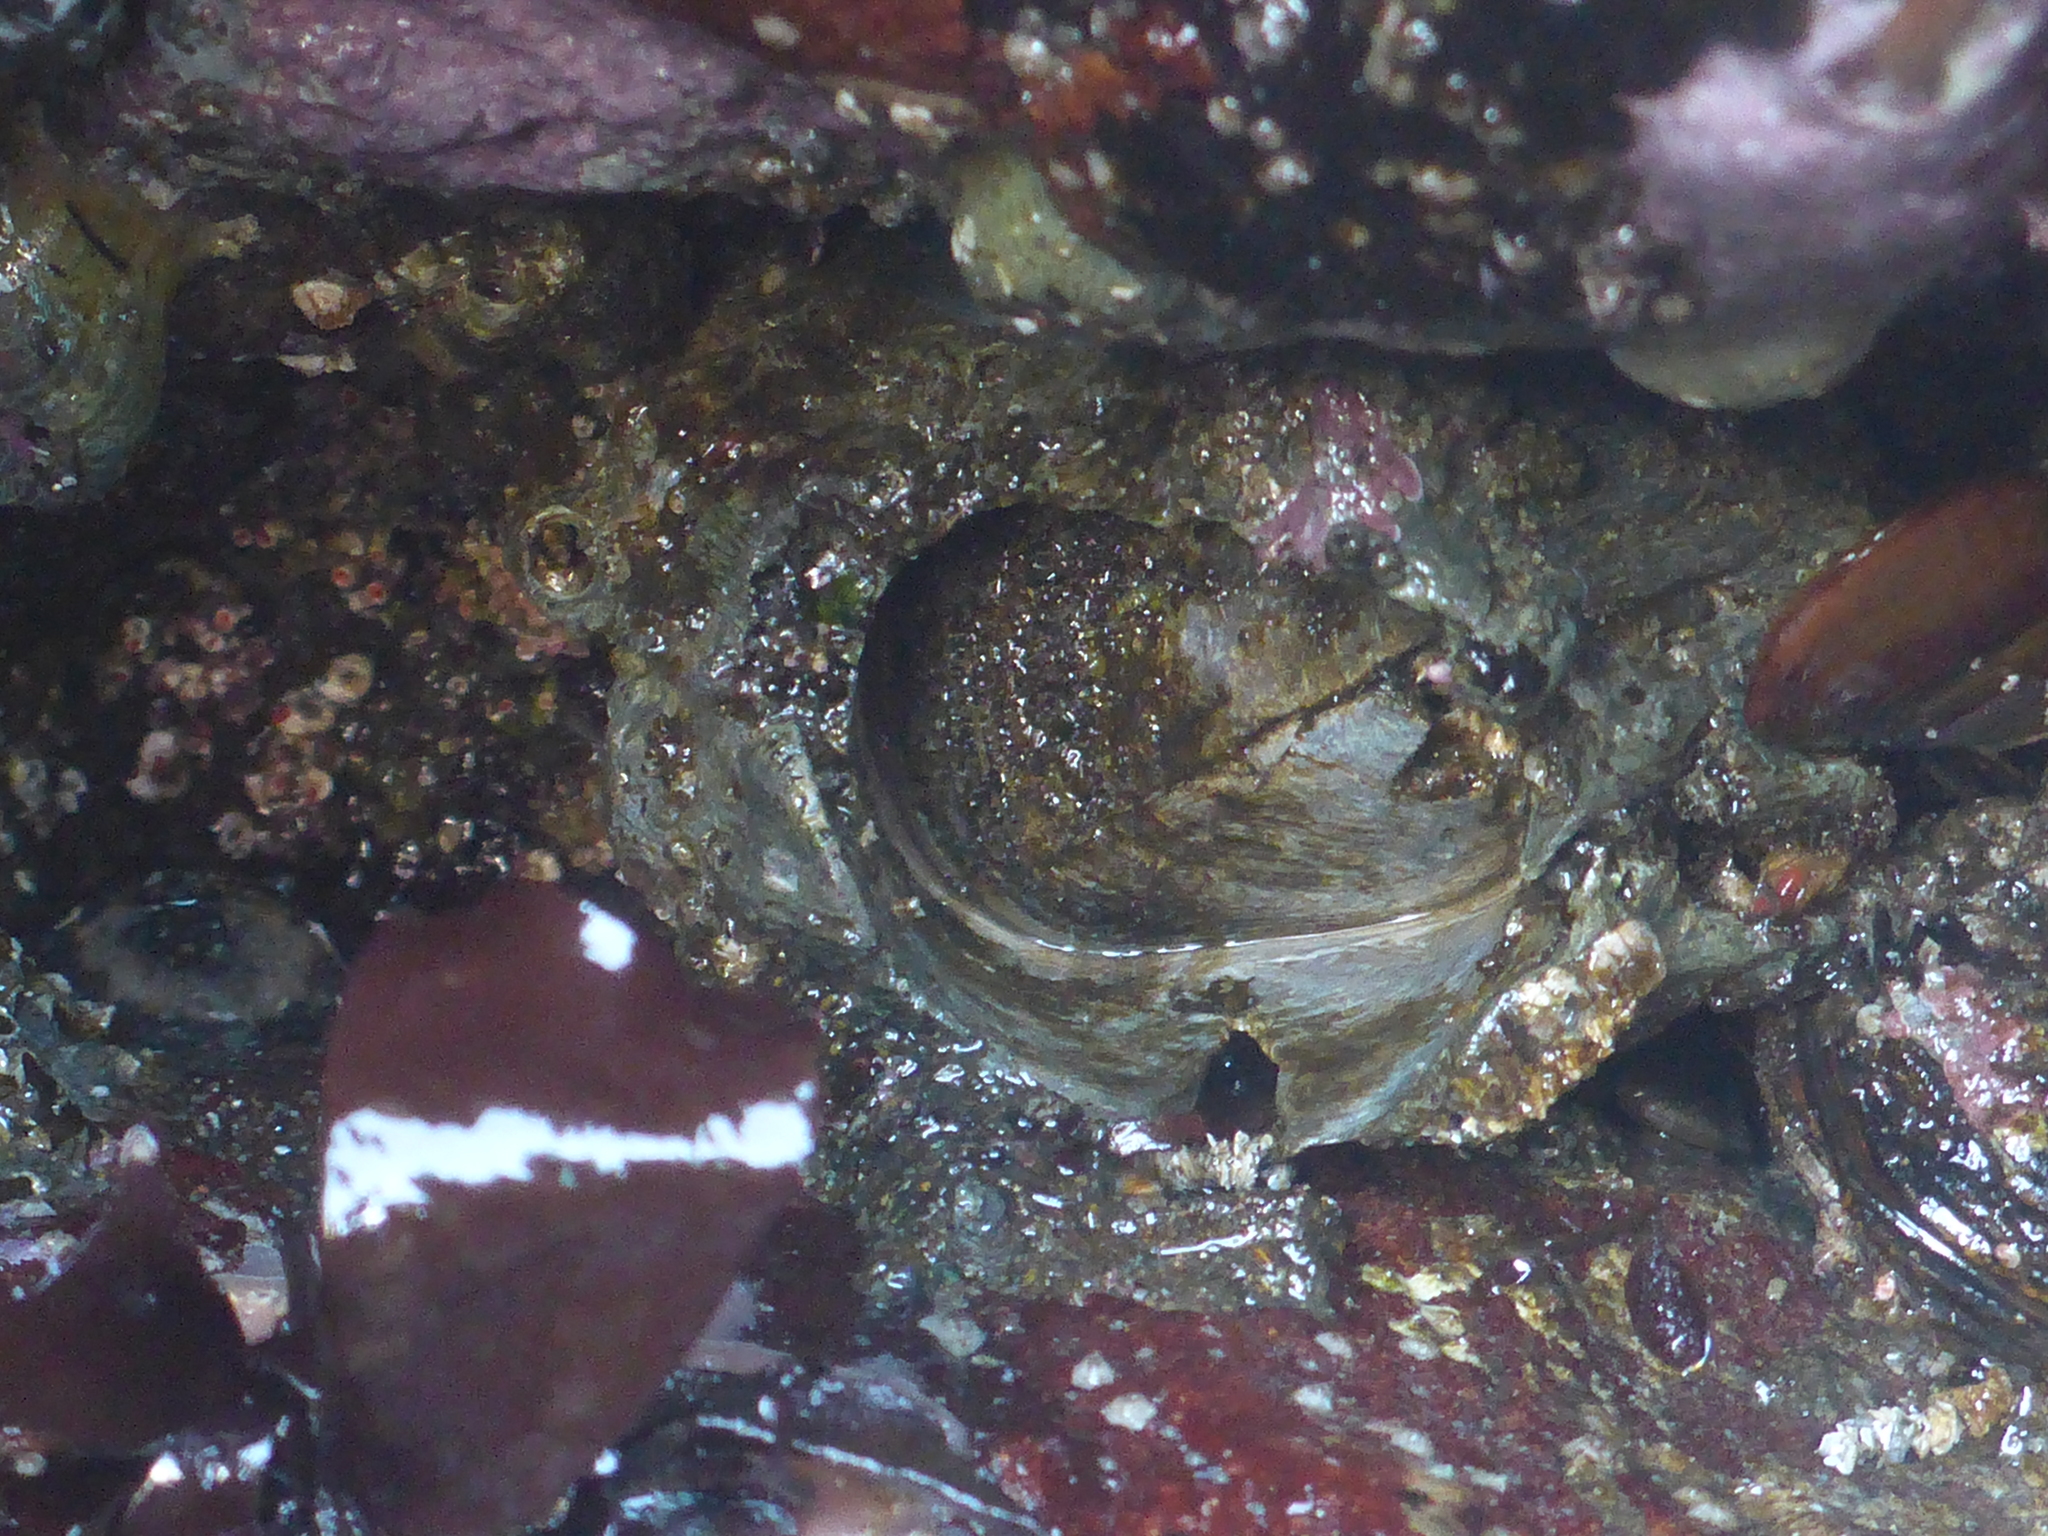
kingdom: Animalia
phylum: Arthropoda
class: Maxillopoda
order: Sessilia
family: Balanidae
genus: Balanus
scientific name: Balanus nubilus
